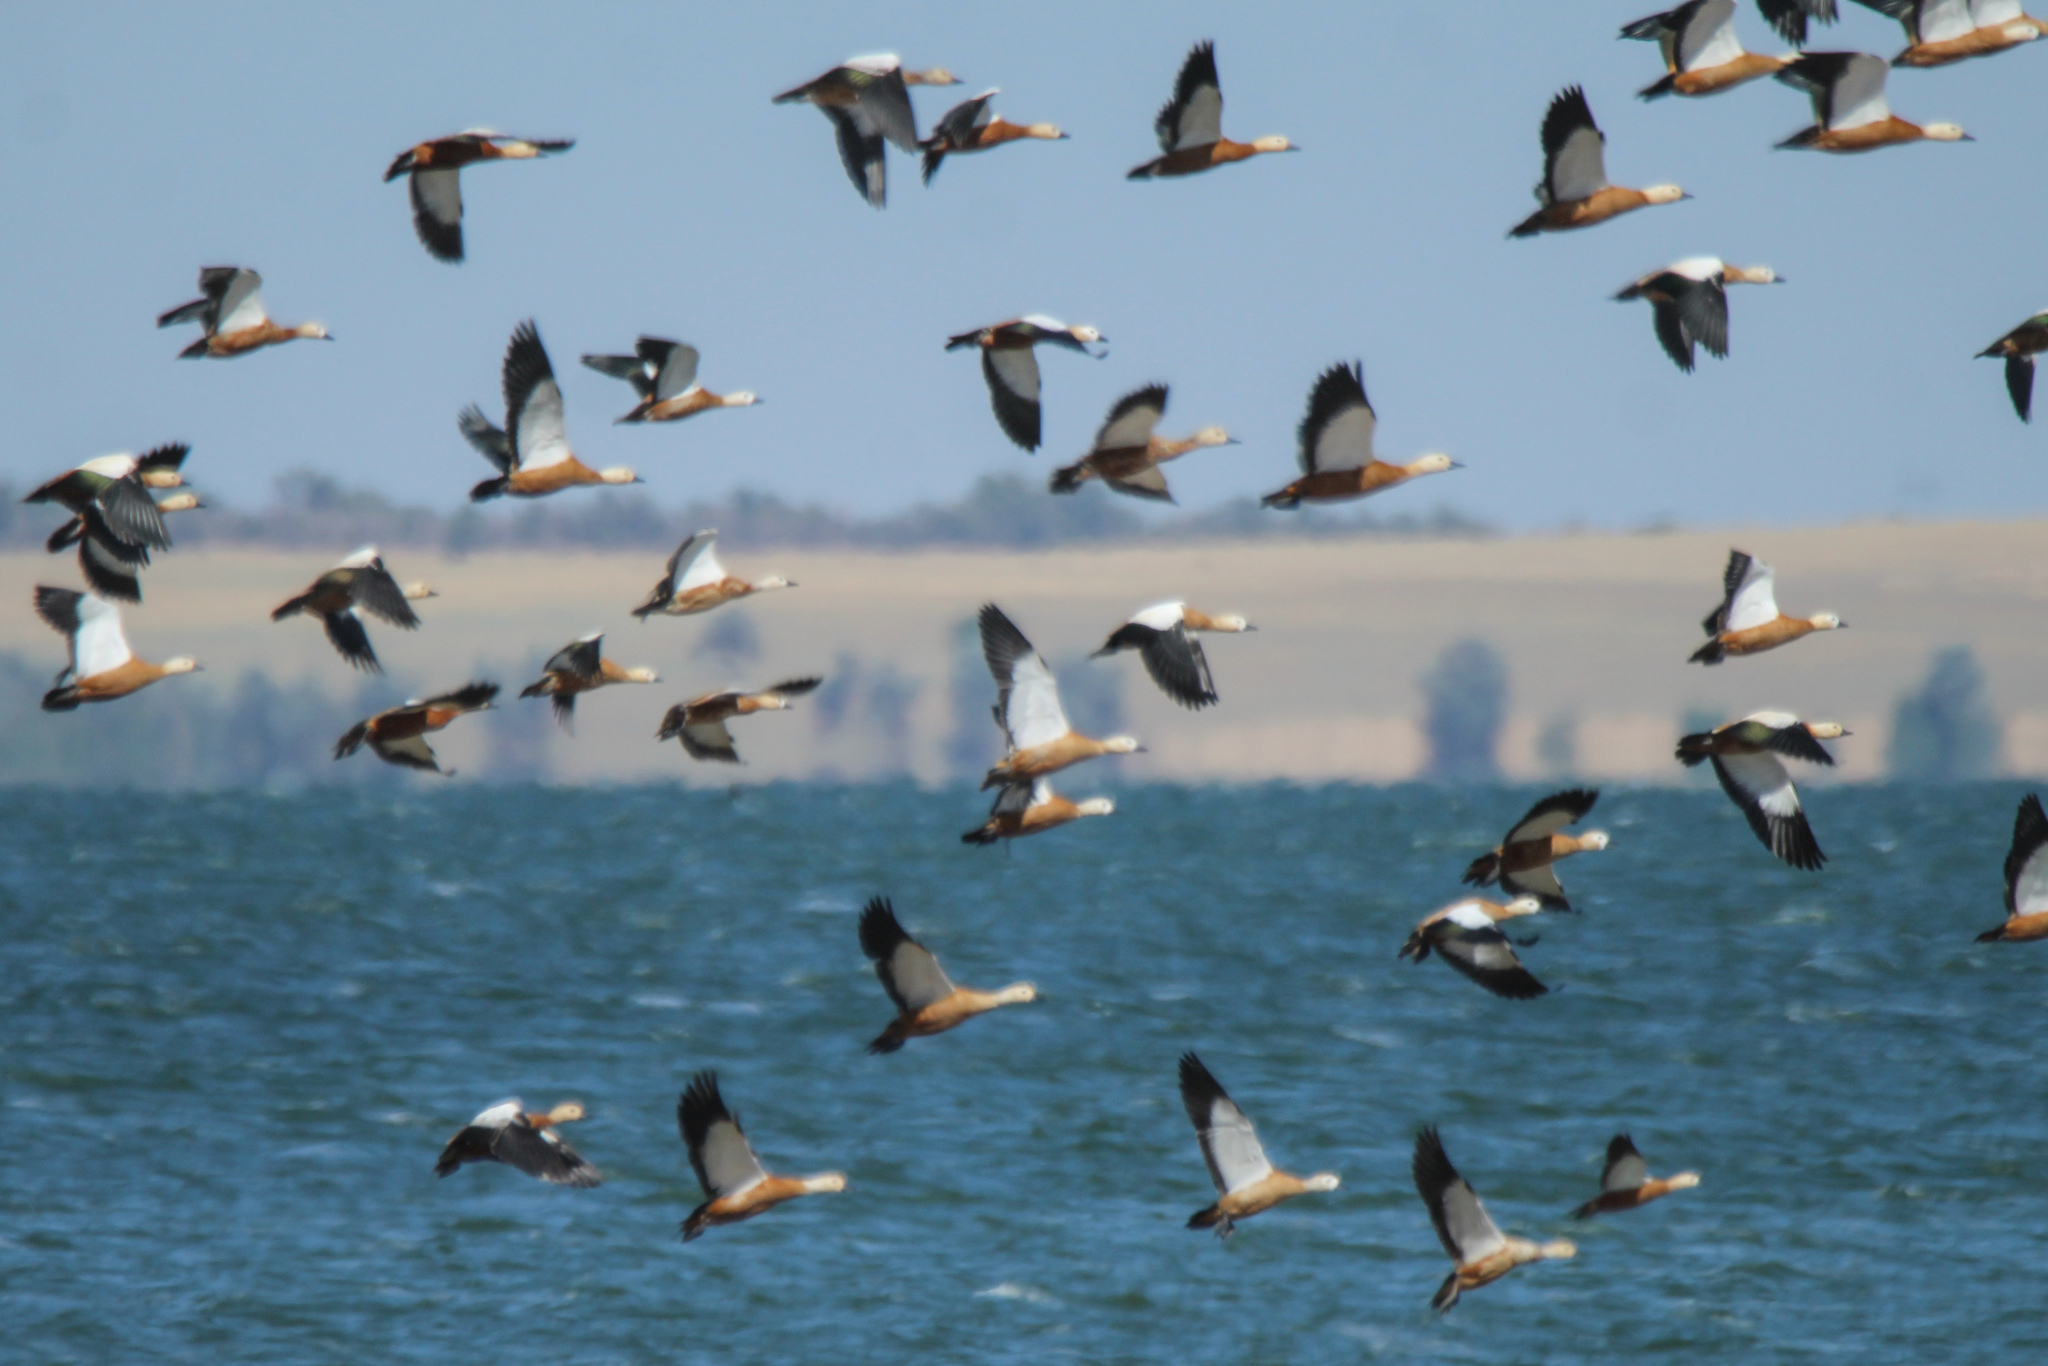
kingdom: Animalia
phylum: Chordata
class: Aves
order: Anseriformes
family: Anatidae
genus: Tadorna
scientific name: Tadorna ferruginea
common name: Ruddy shelduck
